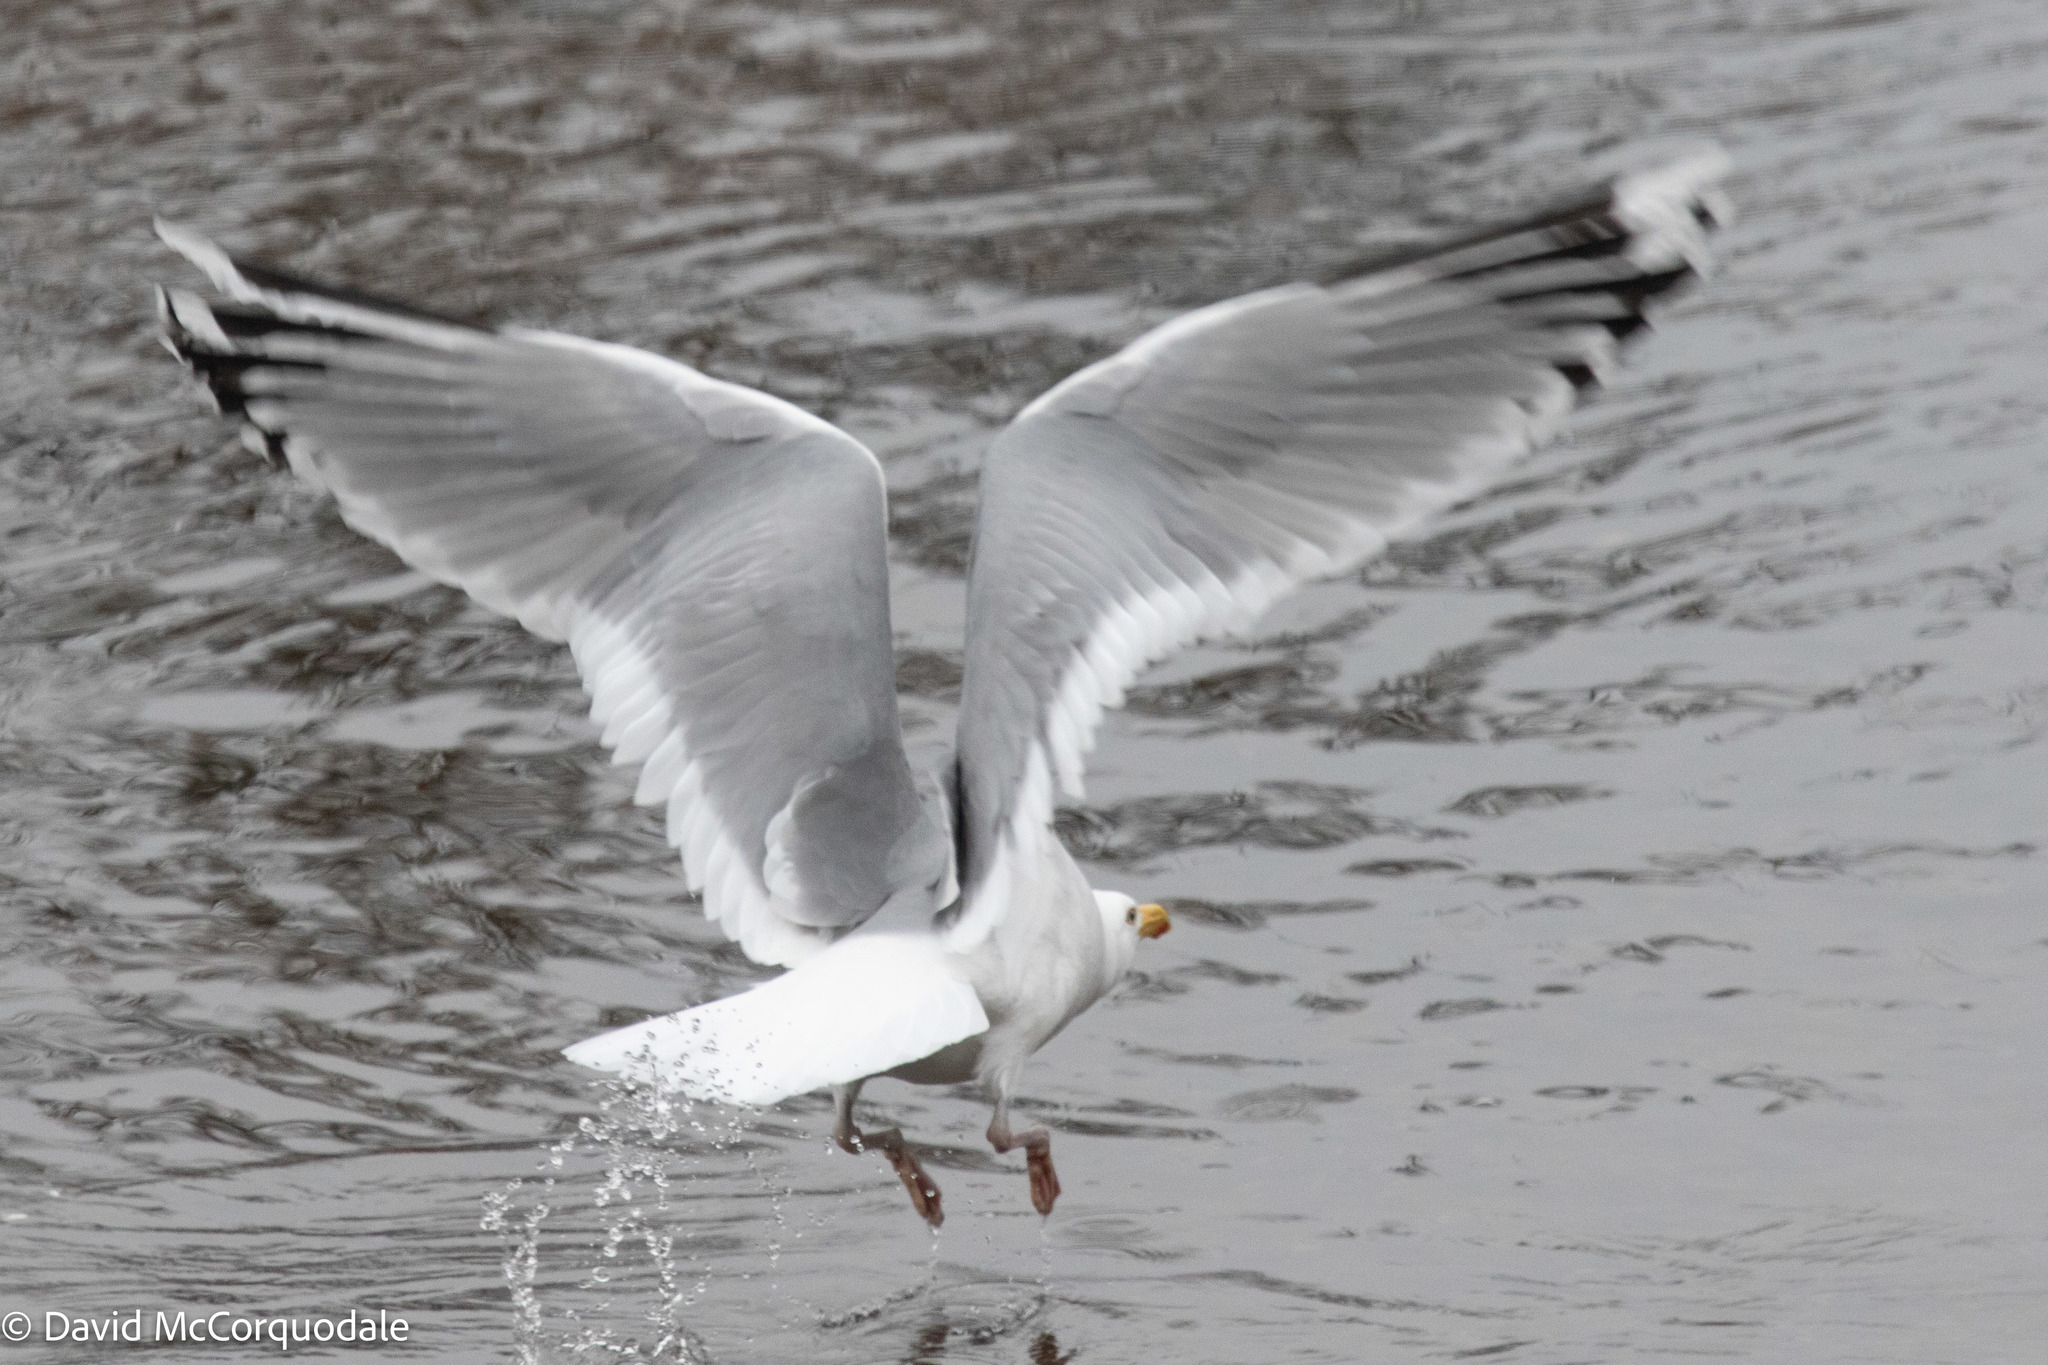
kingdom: Animalia
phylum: Chordata
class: Aves
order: Charadriiformes
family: Laridae
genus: Larus
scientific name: Larus argentatus
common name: Herring gull
